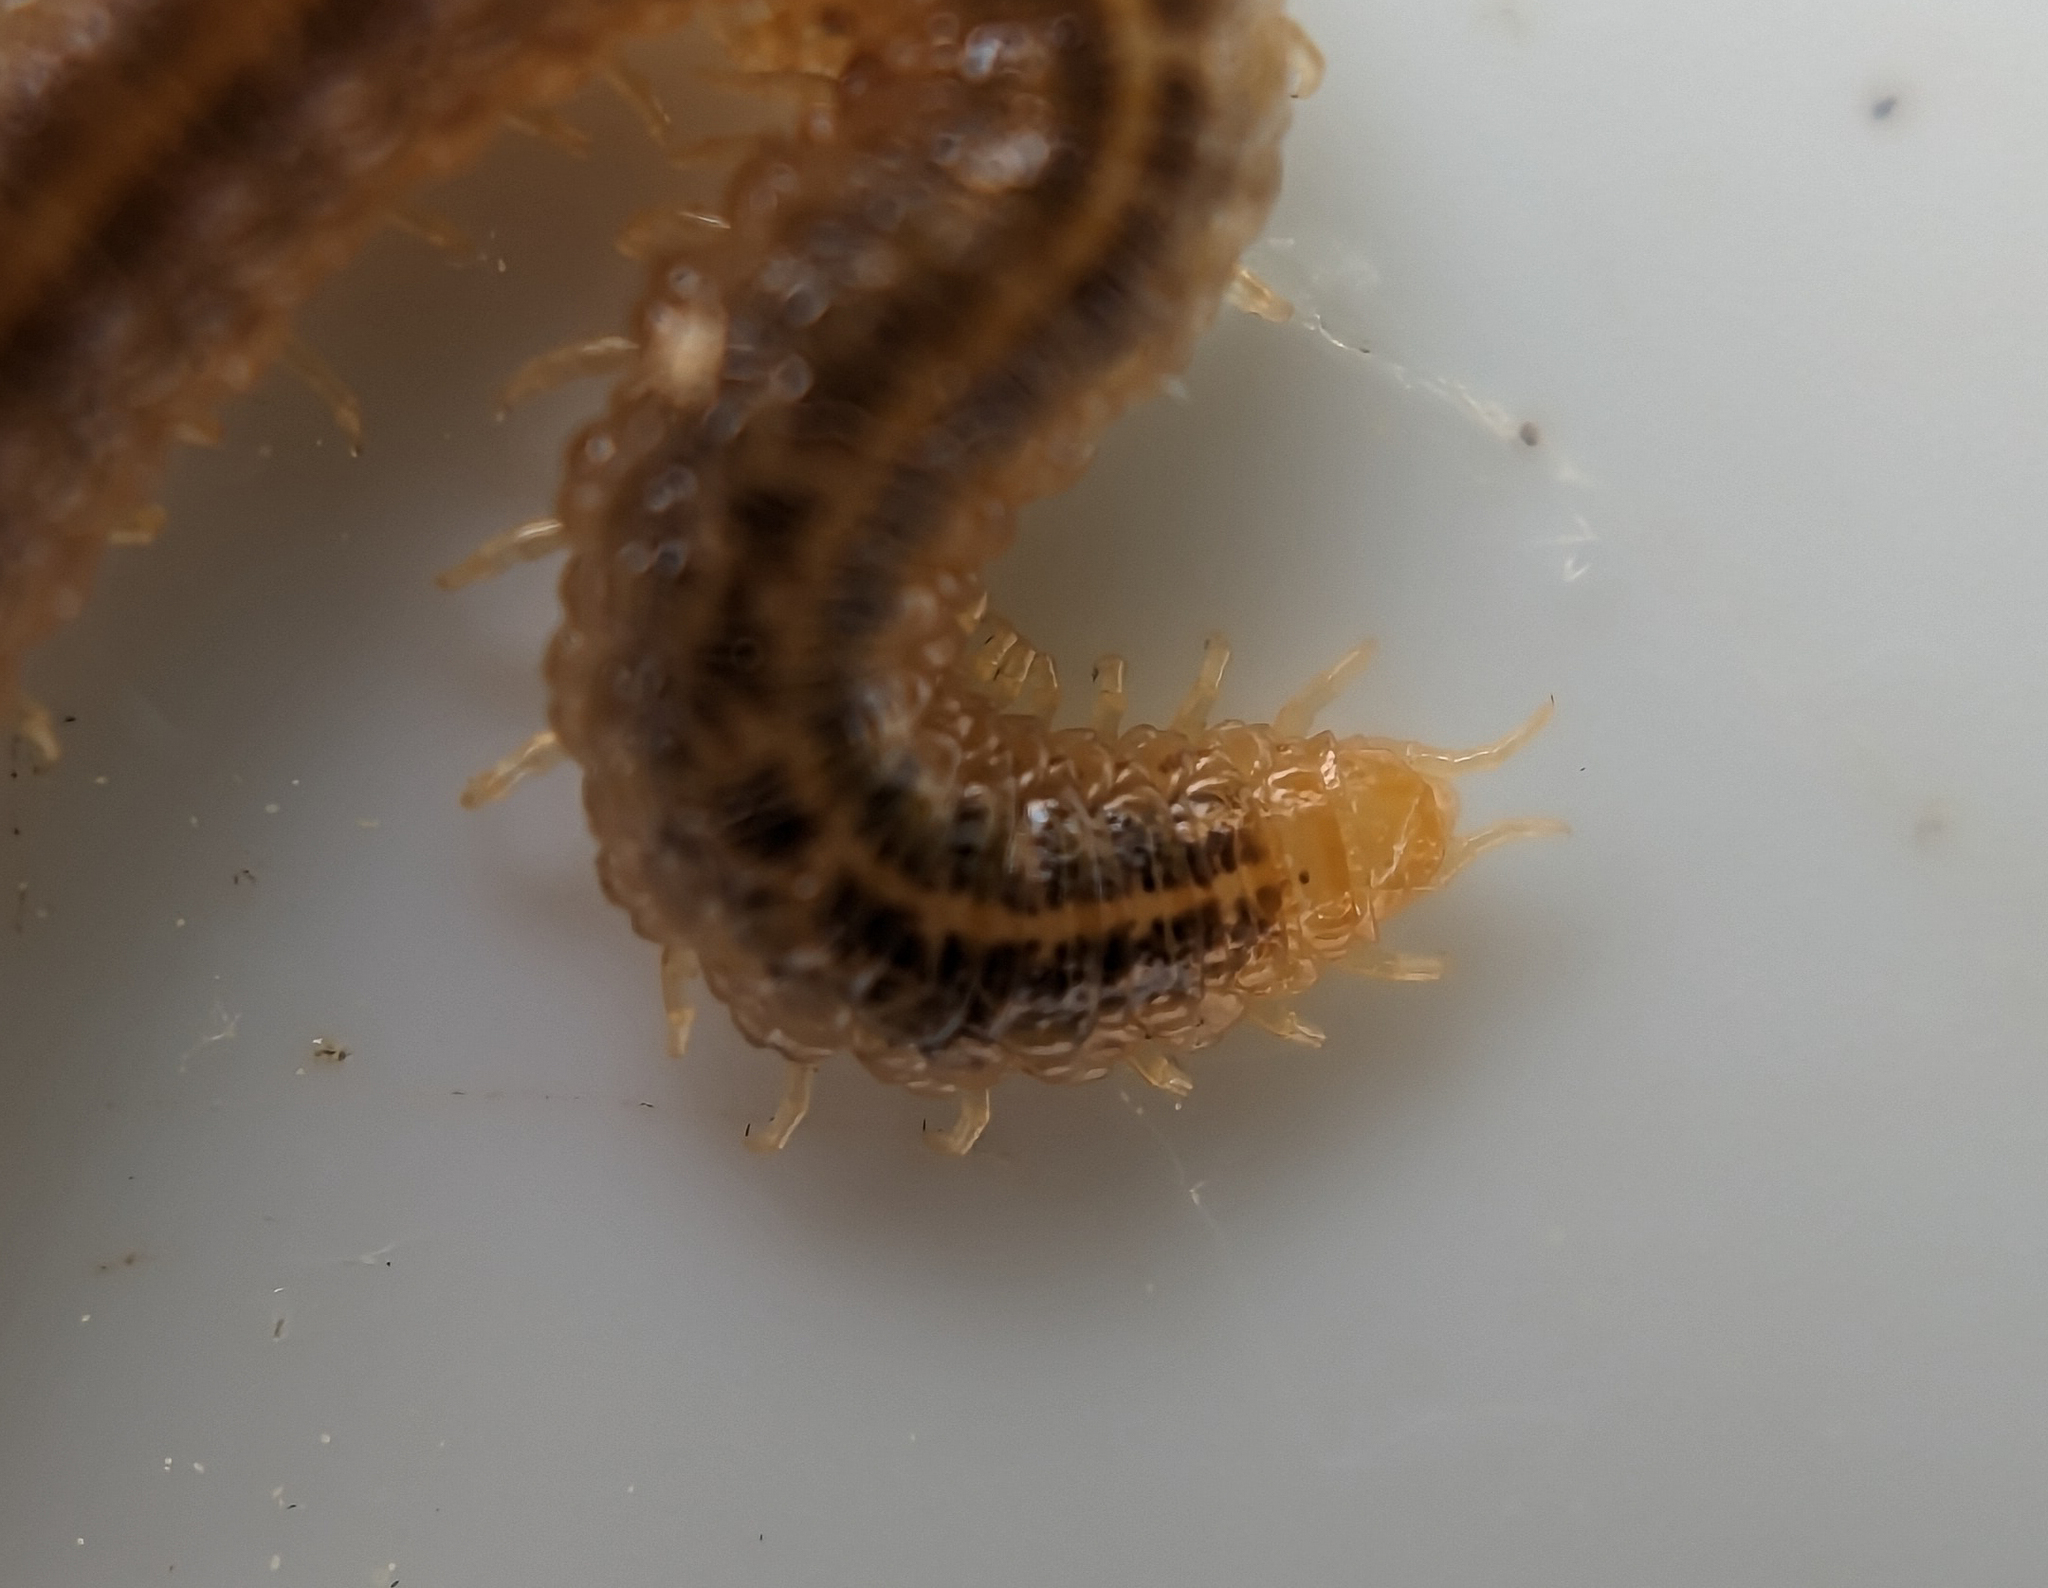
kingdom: Animalia
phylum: Arthropoda
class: Chilopoda
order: Geophilomorpha
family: Dignathodontidae
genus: Henia
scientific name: Henia vesuviana
